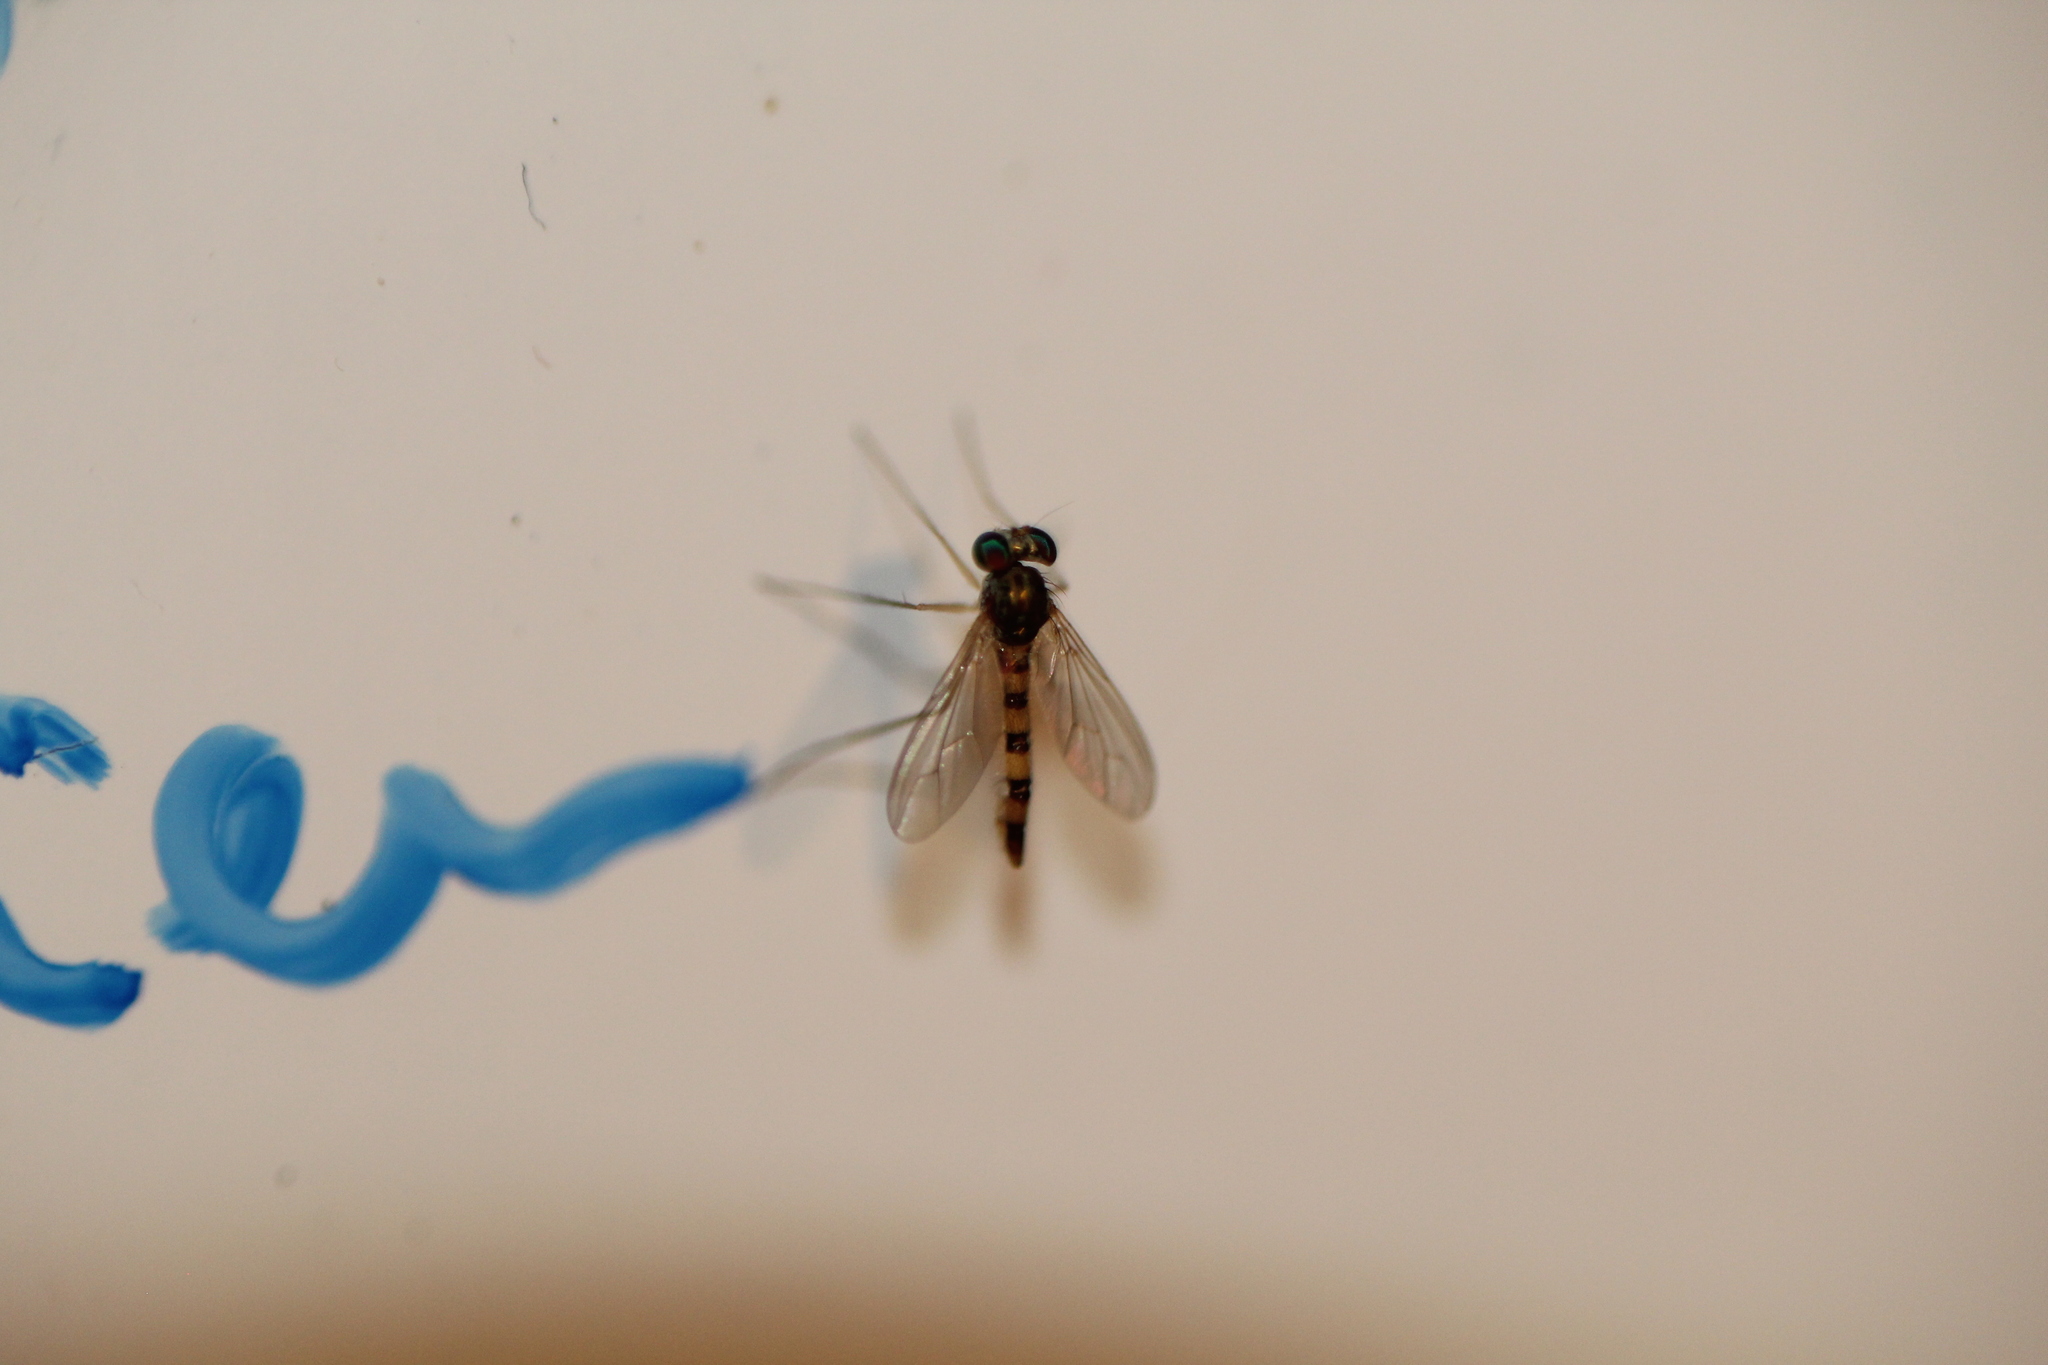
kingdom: Animalia
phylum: Arthropoda
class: Insecta
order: Diptera
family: Dolichopodidae
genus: Sciapus
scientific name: Sciapus heteropygus
